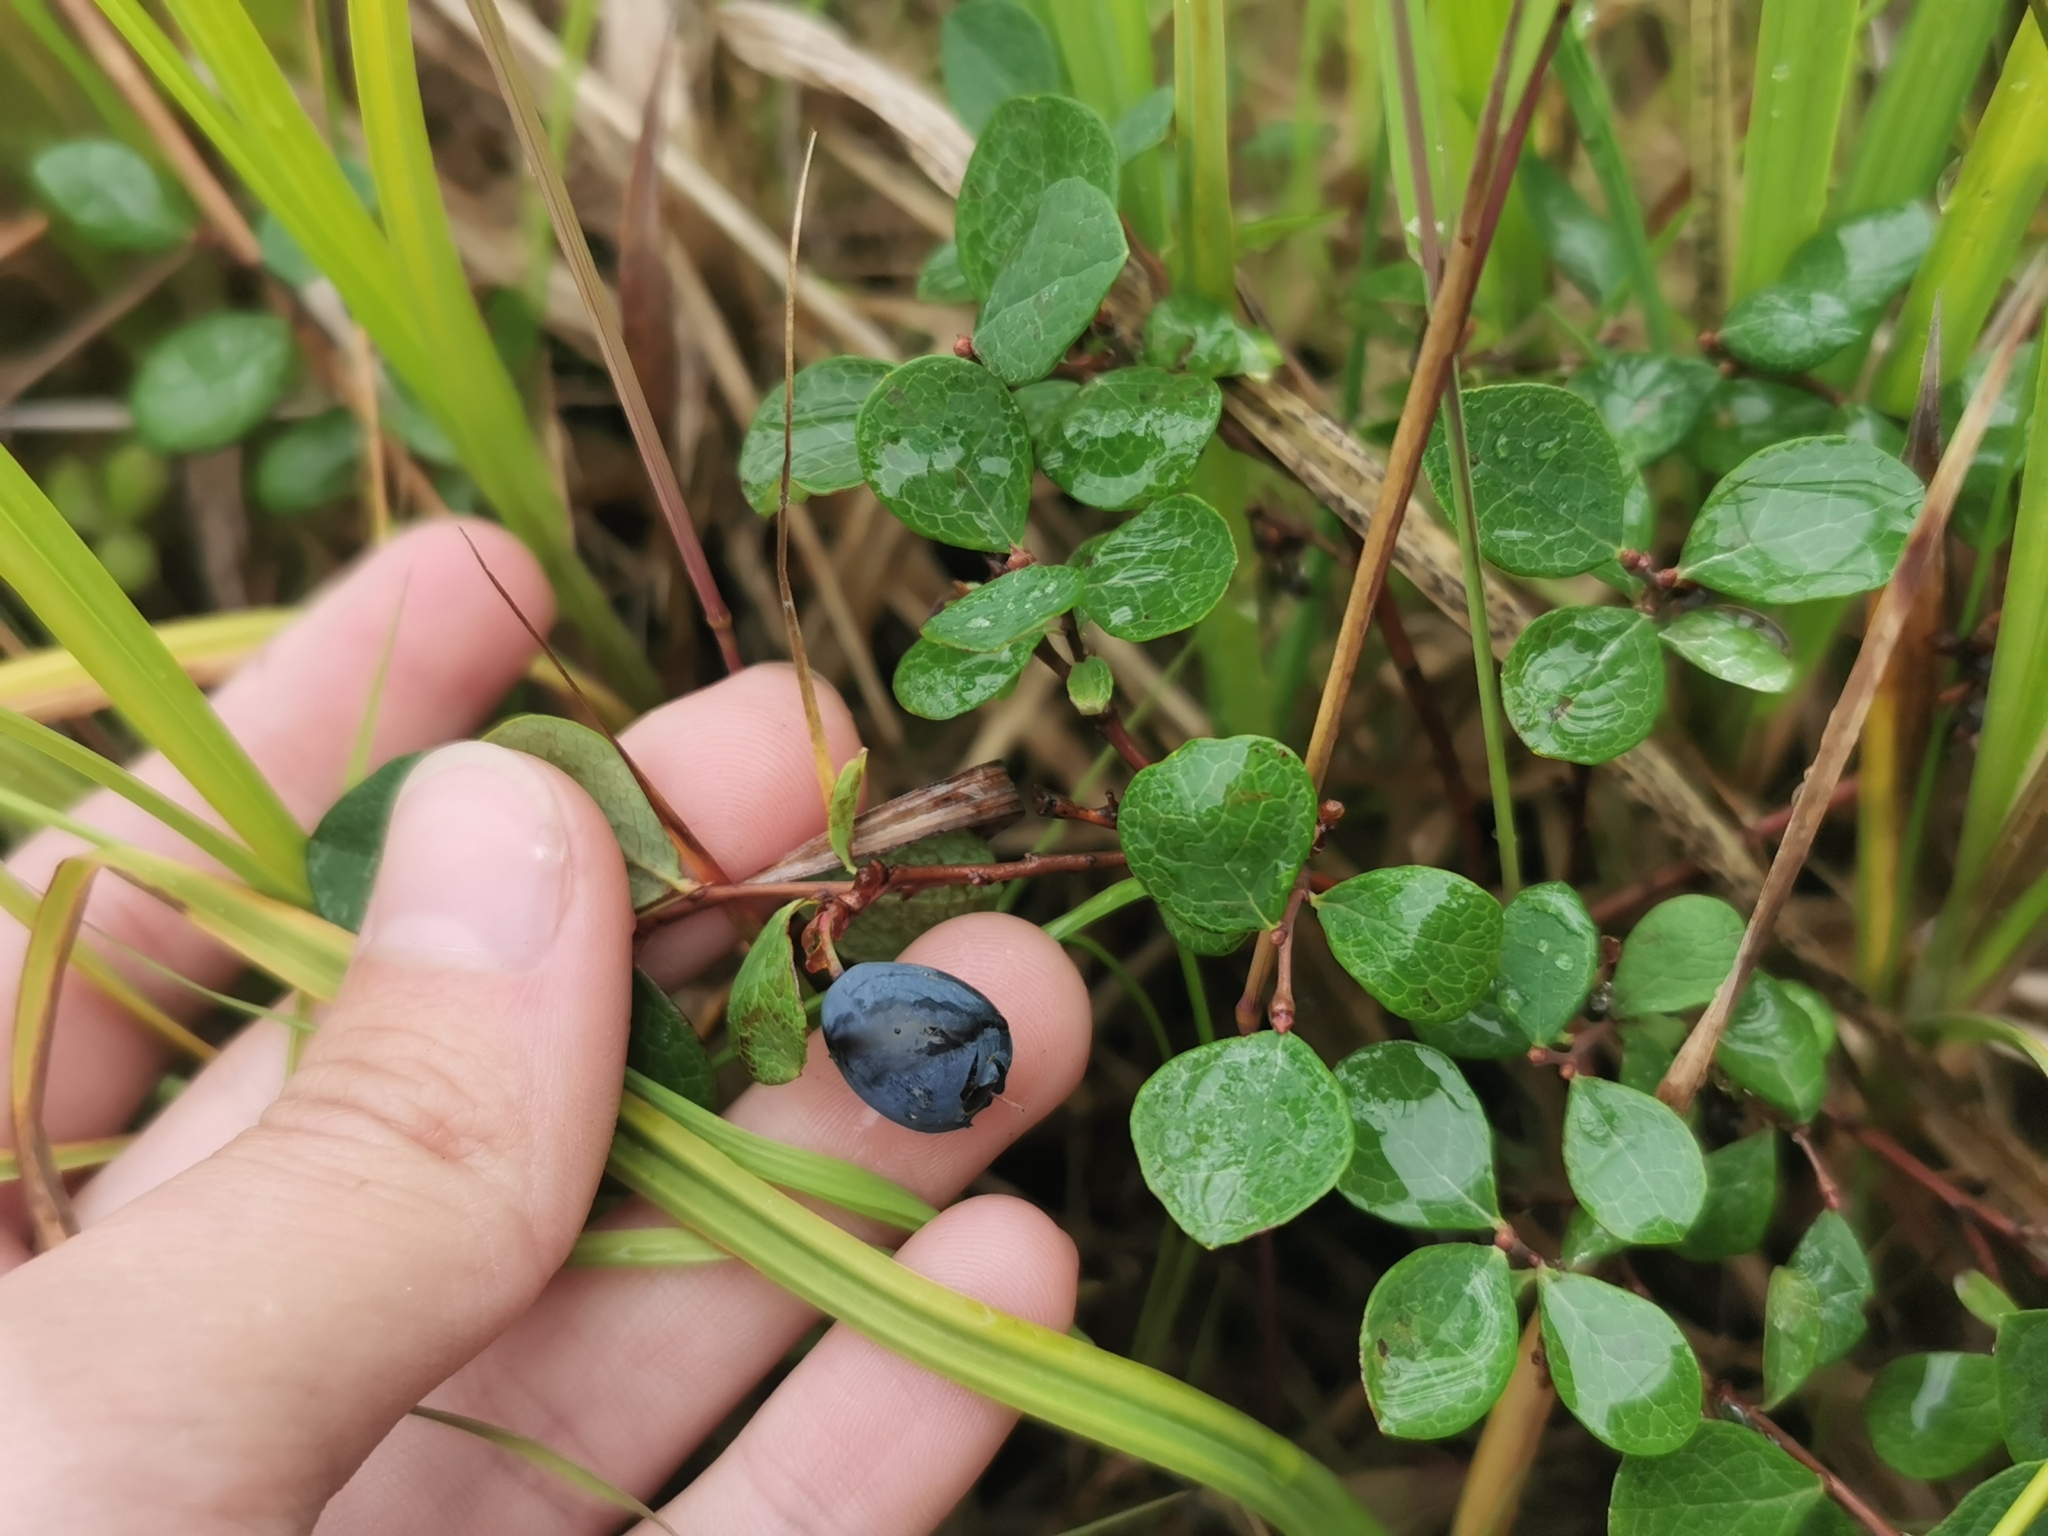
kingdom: Plantae
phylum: Tracheophyta
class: Magnoliopsida
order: Ericales
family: Ericaceae
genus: Vaccinium
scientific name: Vaccinium uliginosum
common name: Bog bilberry
